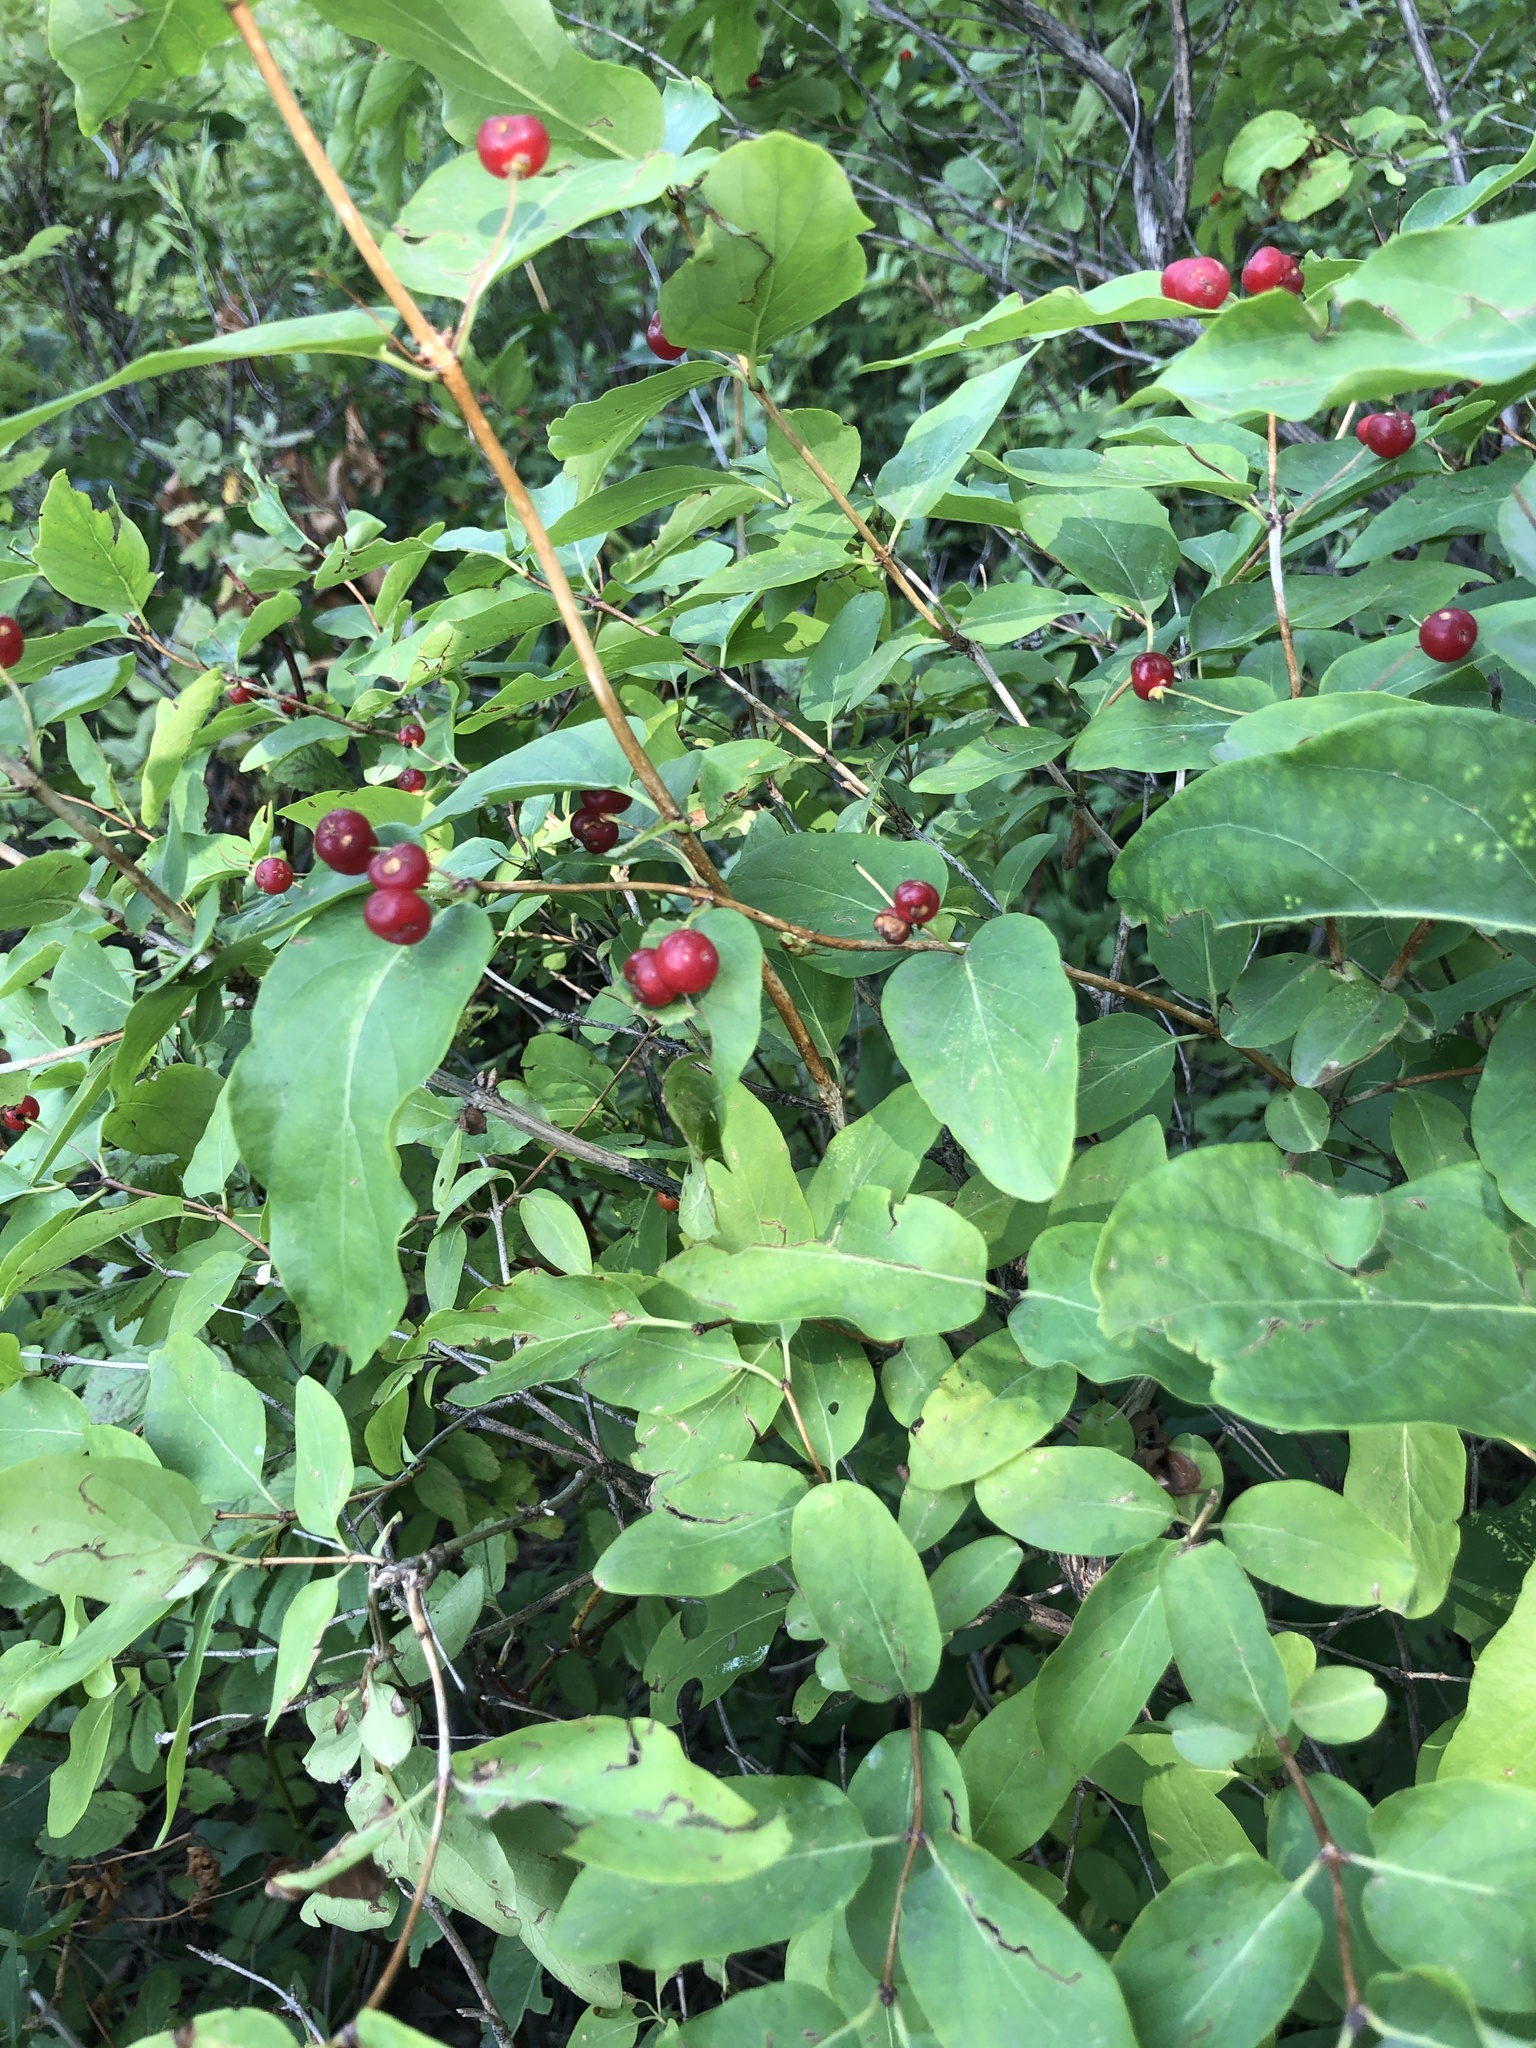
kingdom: Plantae
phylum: Tracheophyta
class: Magnoliopsida
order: Dipsacales
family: Caprifoliaceae
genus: Lonicera
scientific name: Lonicera tatarica
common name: Tatarian honeysuckle
